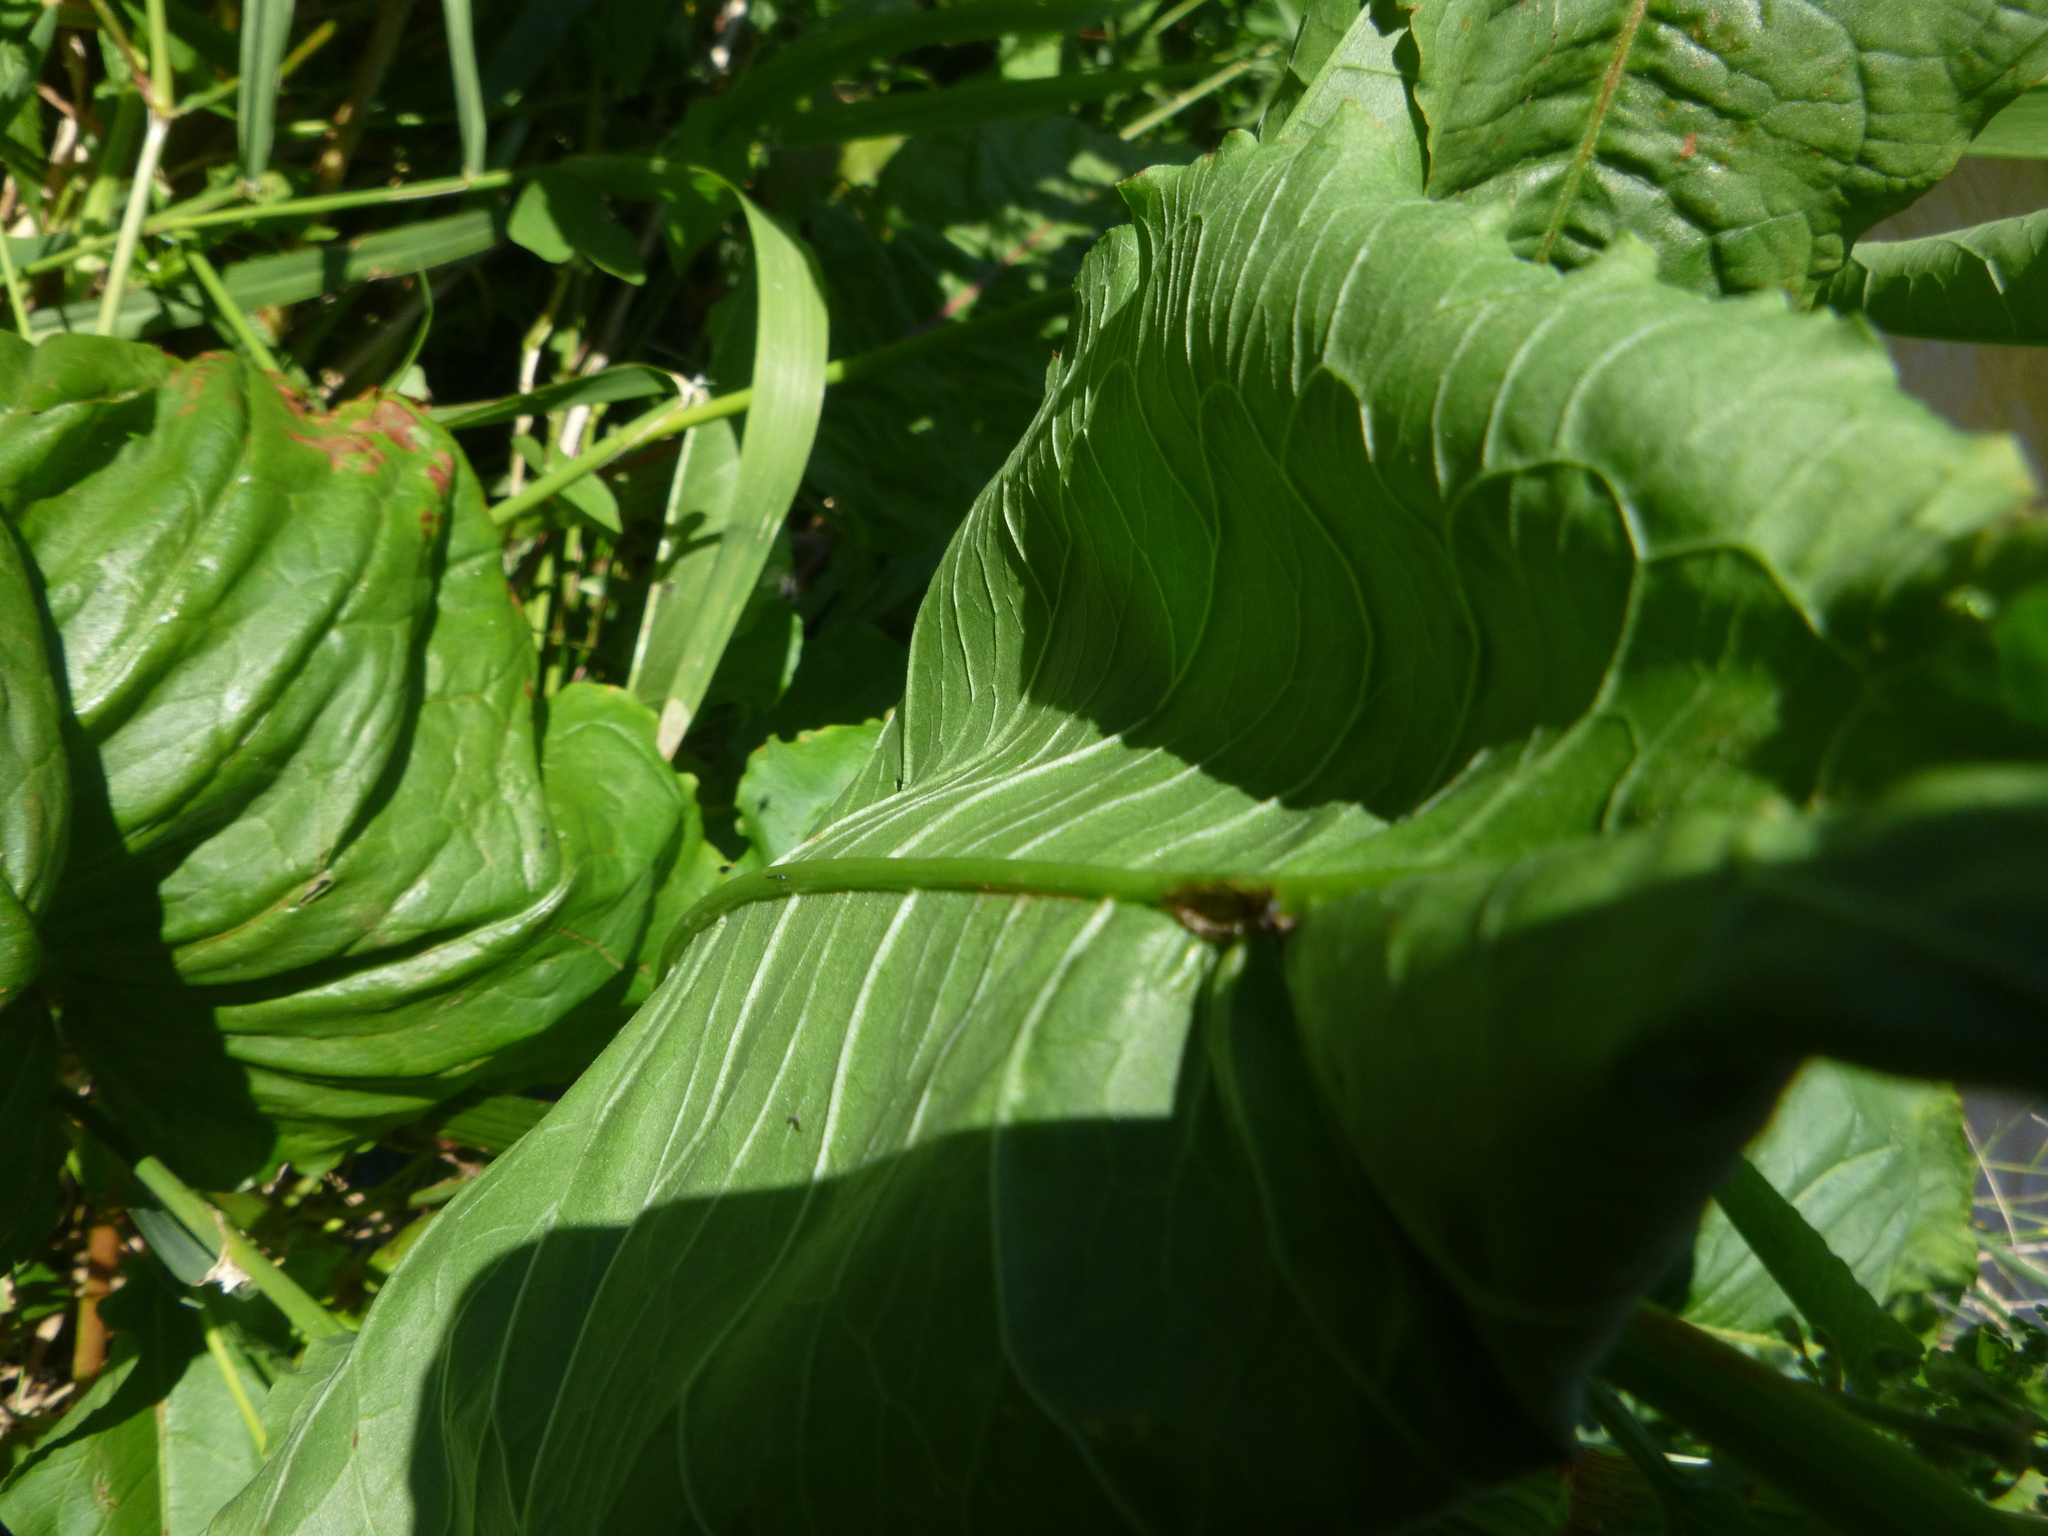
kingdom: Plantae
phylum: Tracheophyta
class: Magnoliopsida
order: Caryophyllales
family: Polygonaceae
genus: Rumex
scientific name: Rumex aquaticus
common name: Scottish dock
